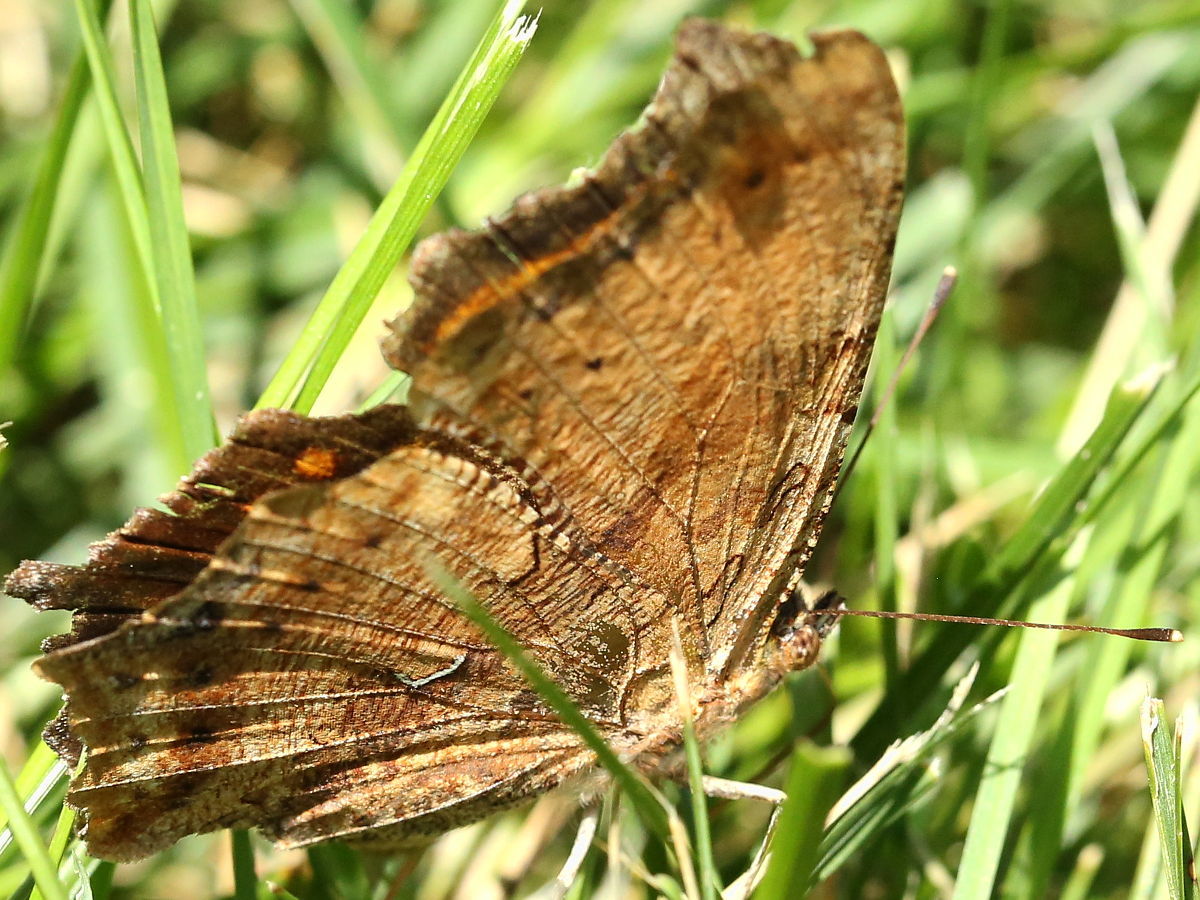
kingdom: Animalia
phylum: Arthropoda
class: Insecta
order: Lepidoptera
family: Nymphalidae
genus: Polygonia
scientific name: Polygonia comma
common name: Eastern comma
